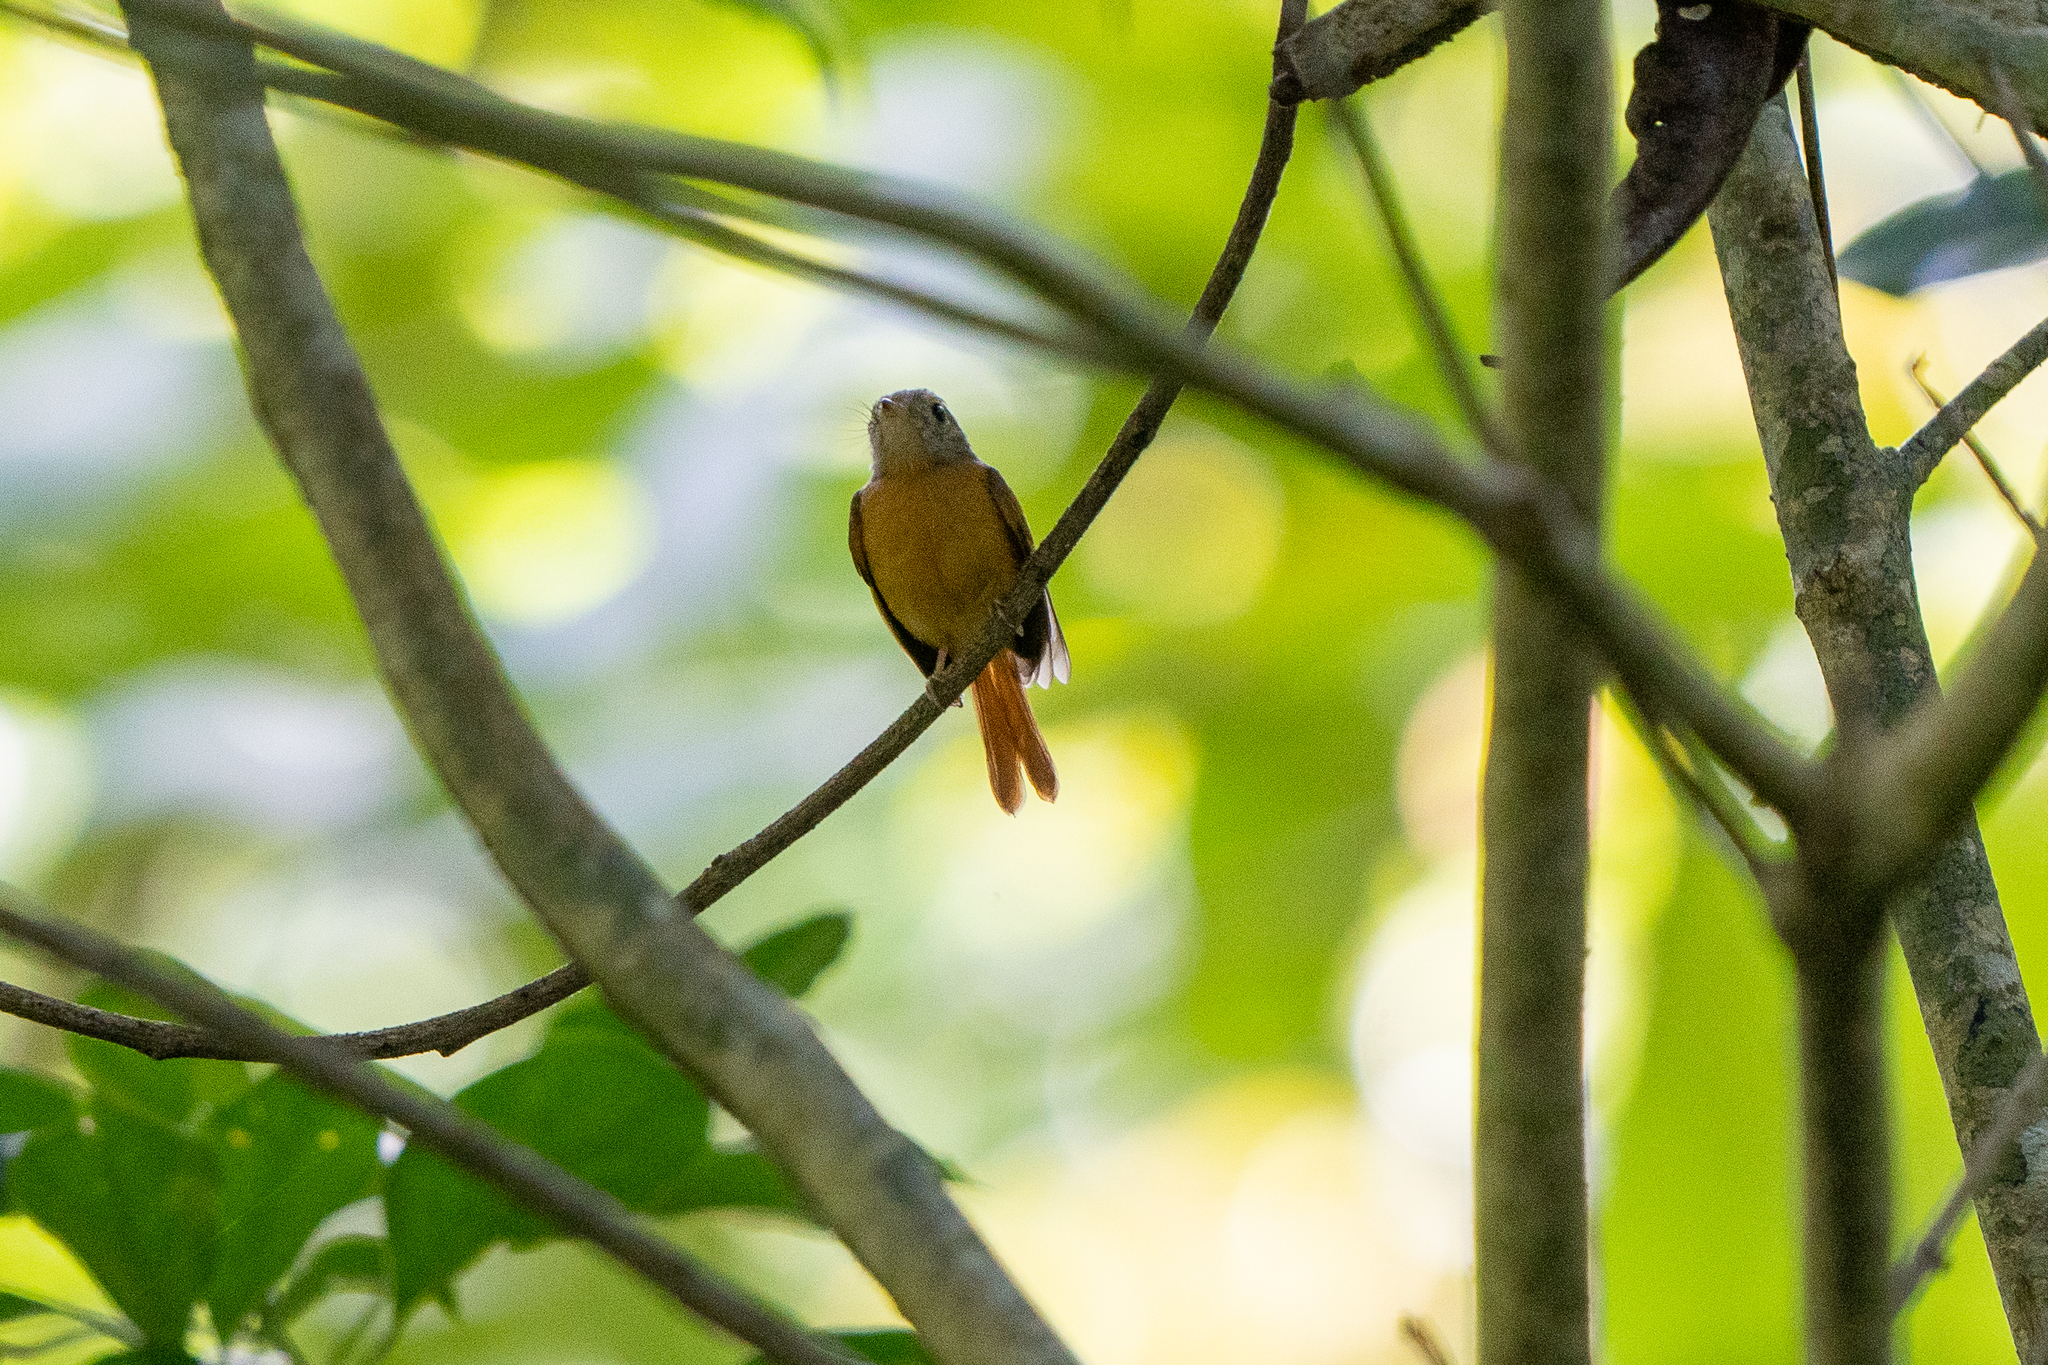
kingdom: Animalia
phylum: Chordata
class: Aves
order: Passeriformes
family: Tyrannidae
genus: Terenotriccus
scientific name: Terenotriccus erythrurus
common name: Ruddy-tailed flycatcher
